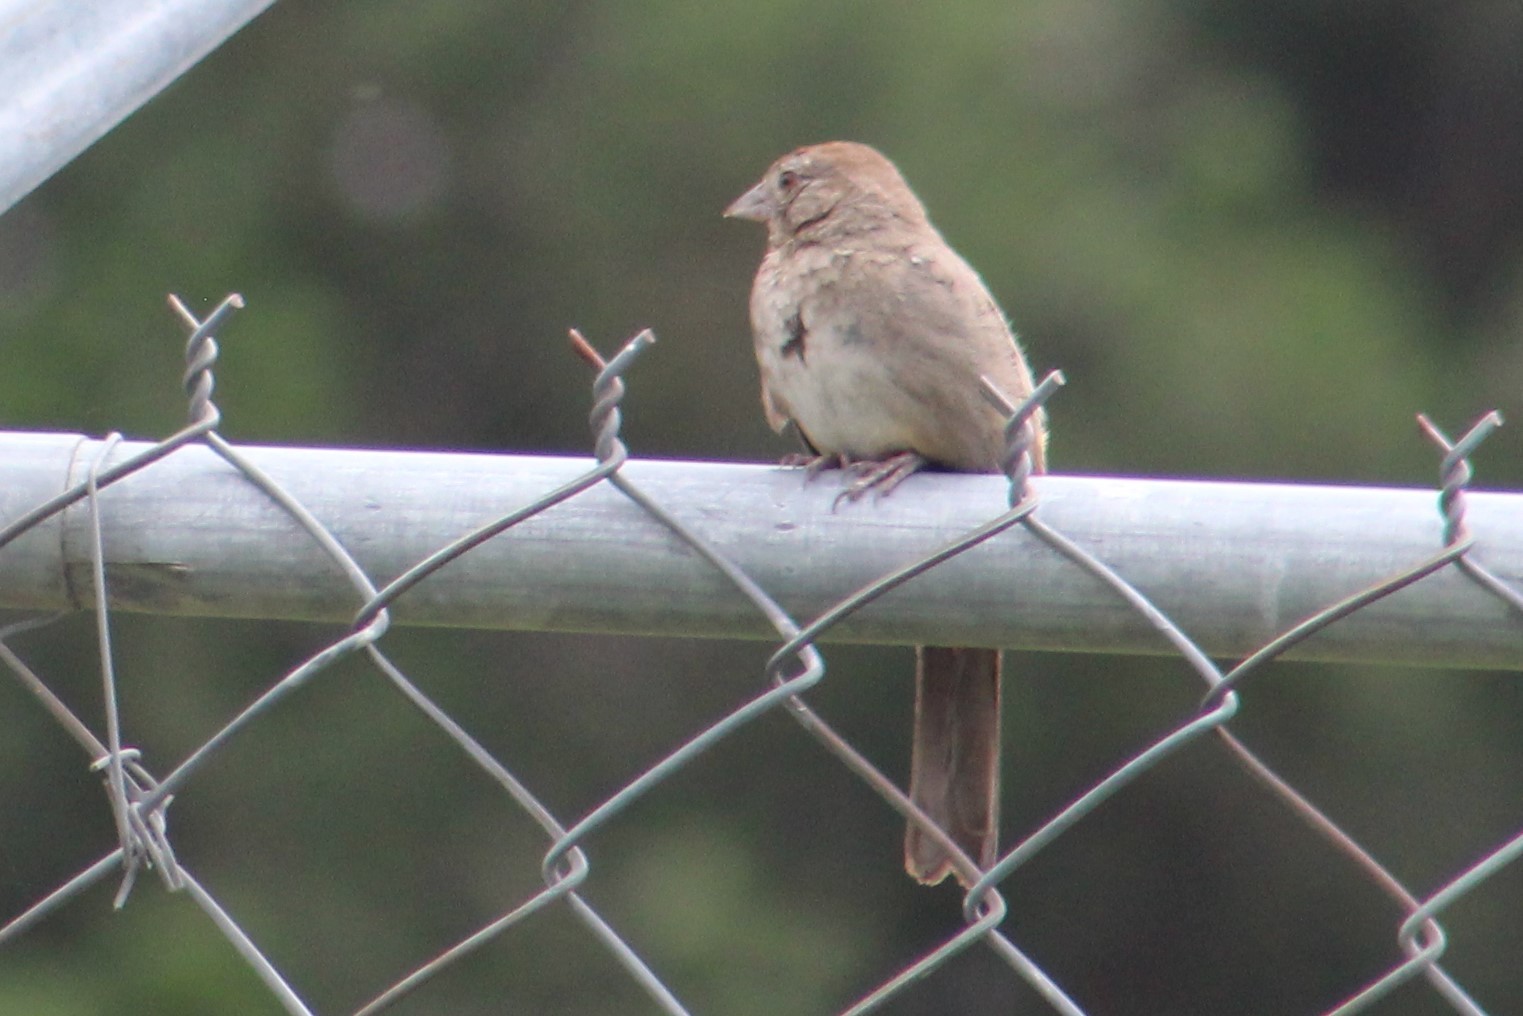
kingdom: Animalia
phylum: Chordata
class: Aves
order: Passeriformes
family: Passerellidae
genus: Melozone
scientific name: Melozone fusca
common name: Canyon towhee
